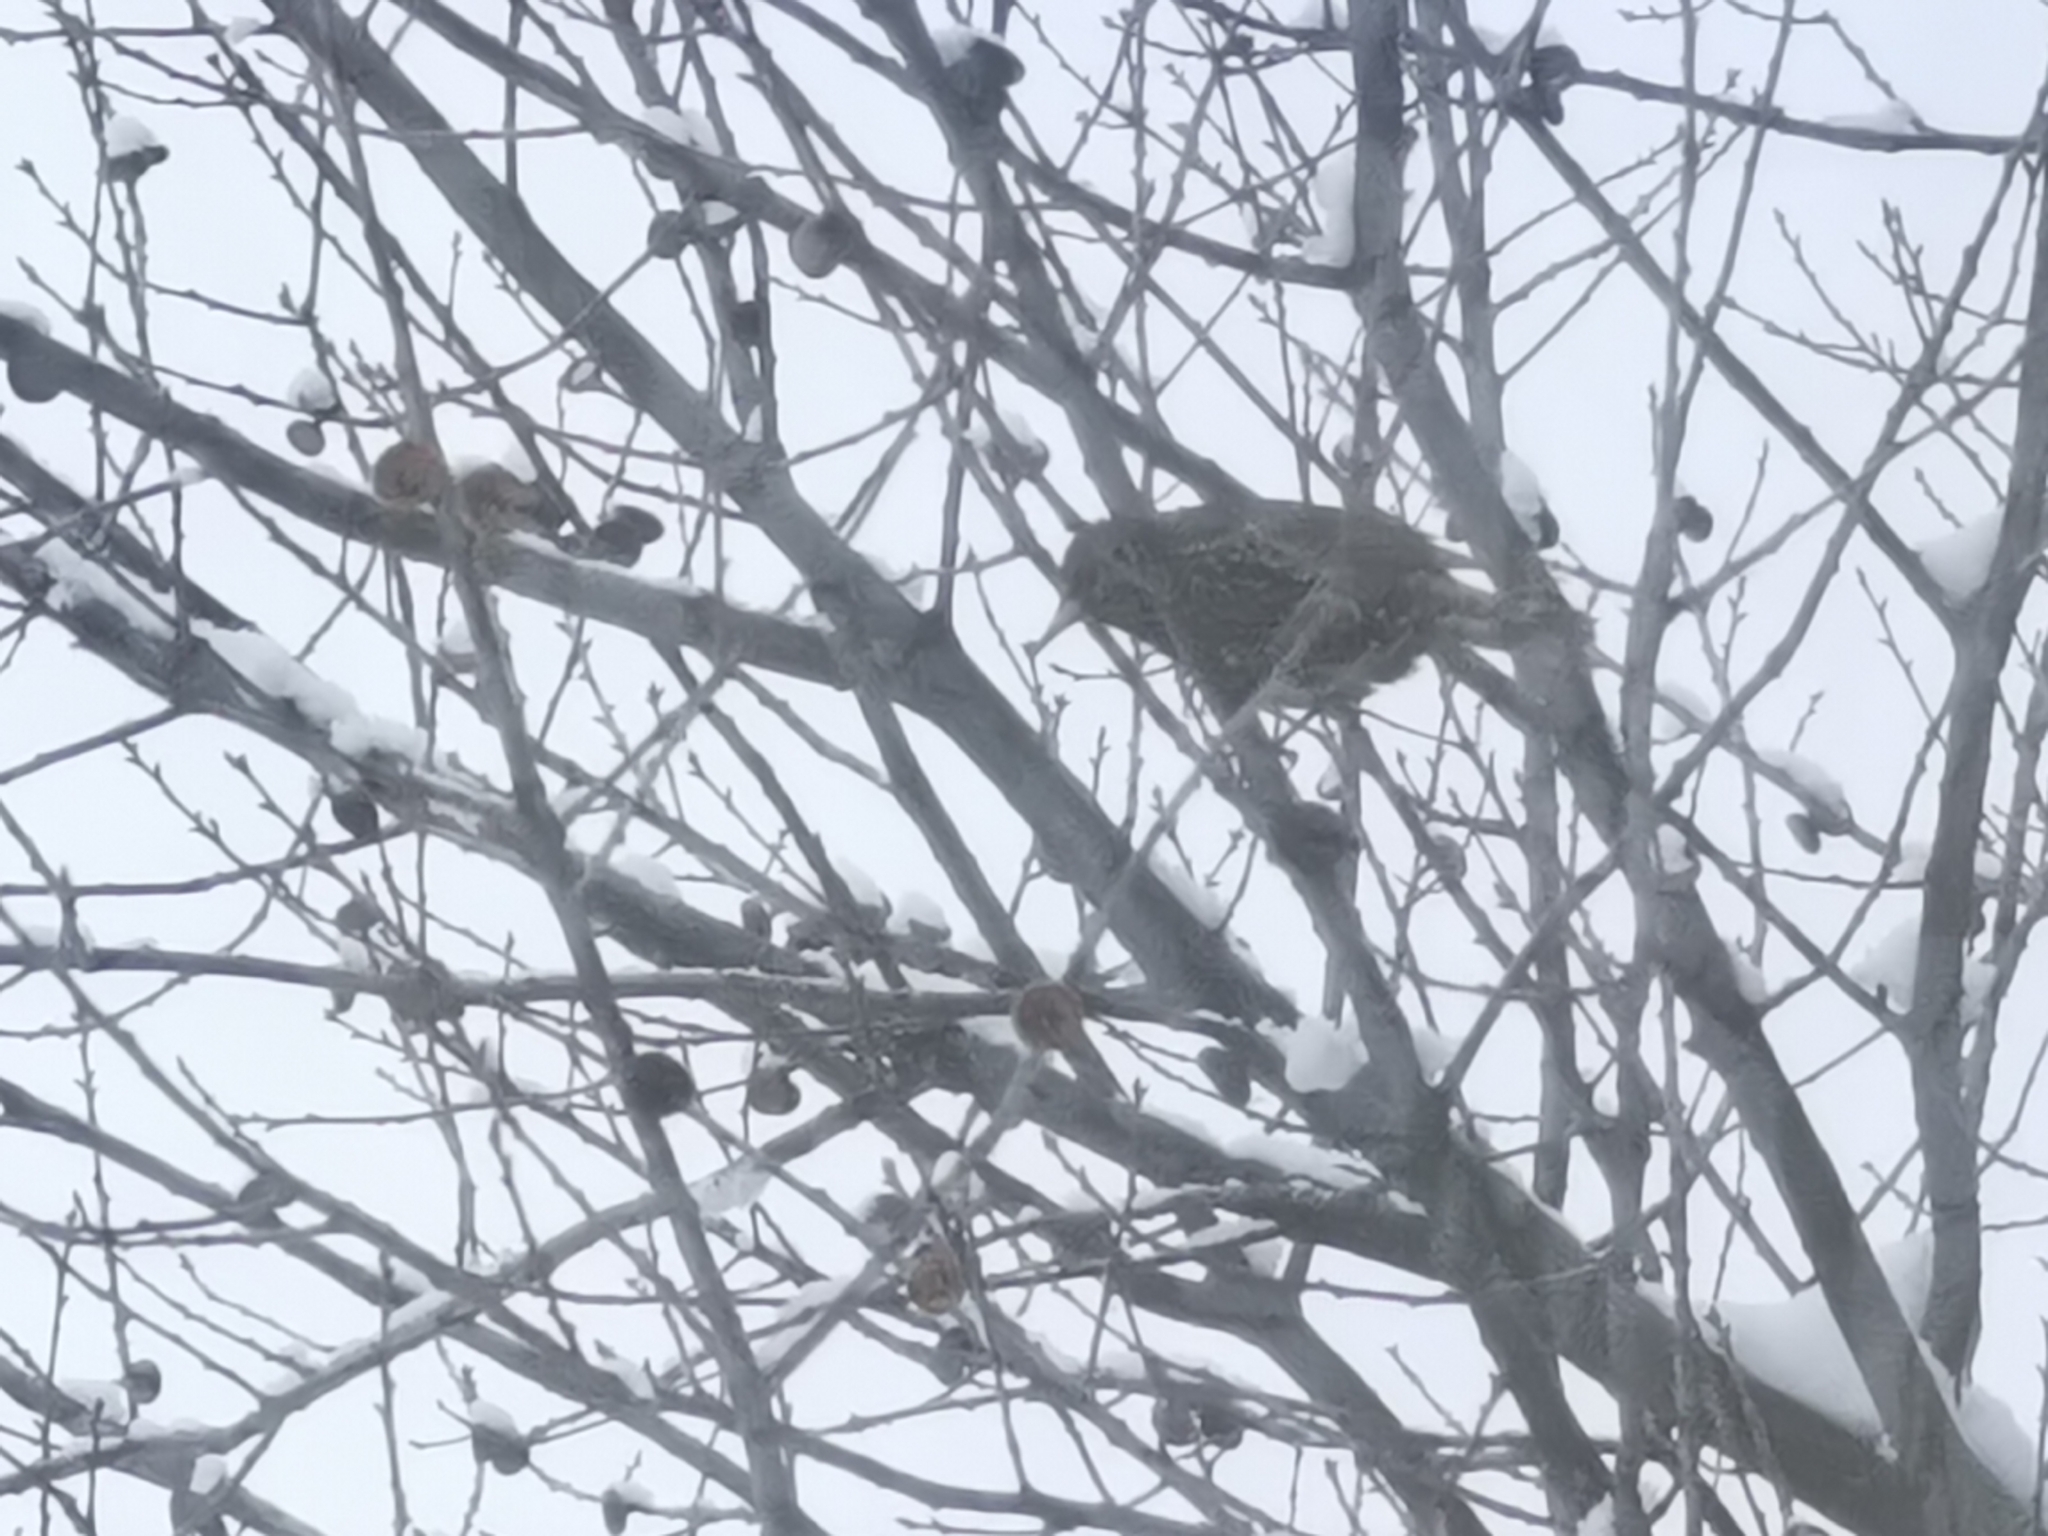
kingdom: Animalia
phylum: Chordata
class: Aves
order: Passeriformes
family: Sturnidae
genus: Sturnus
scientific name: Sturnus vulgaris
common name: Common starling
